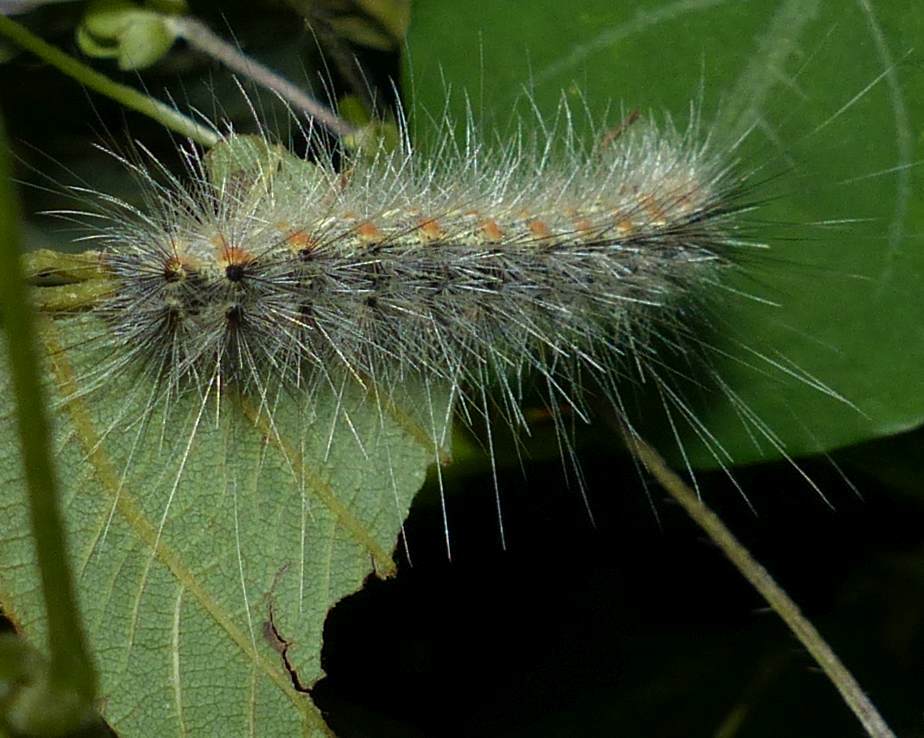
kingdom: Animalia
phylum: Arthropoda
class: Insecta
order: Lepidoptera
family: Erebidae
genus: Hyphantria
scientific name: Hyphantria cunea
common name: American white moth
